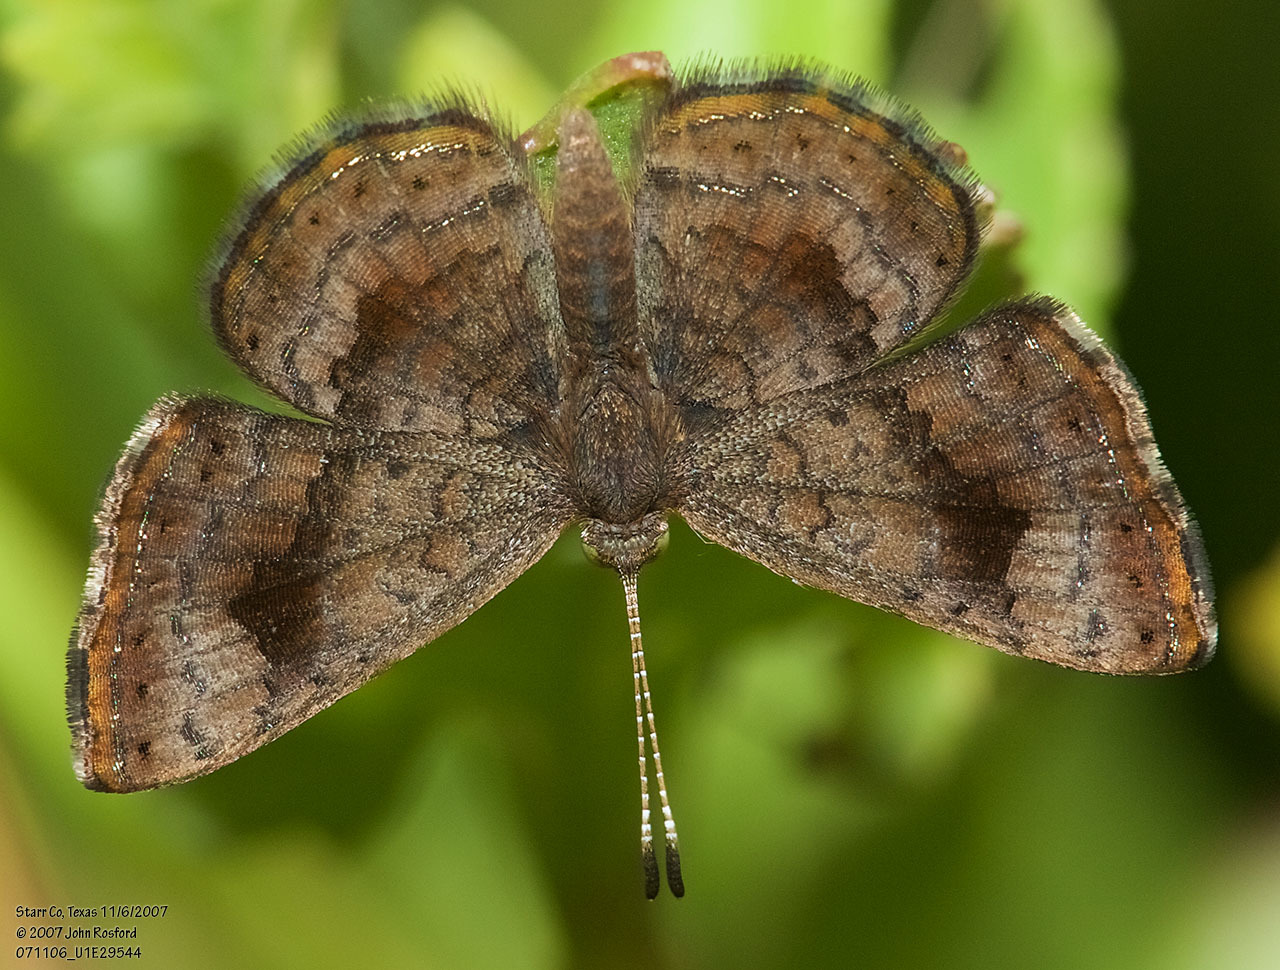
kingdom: Animalia
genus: Calephelis
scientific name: Calephelis nemesis
